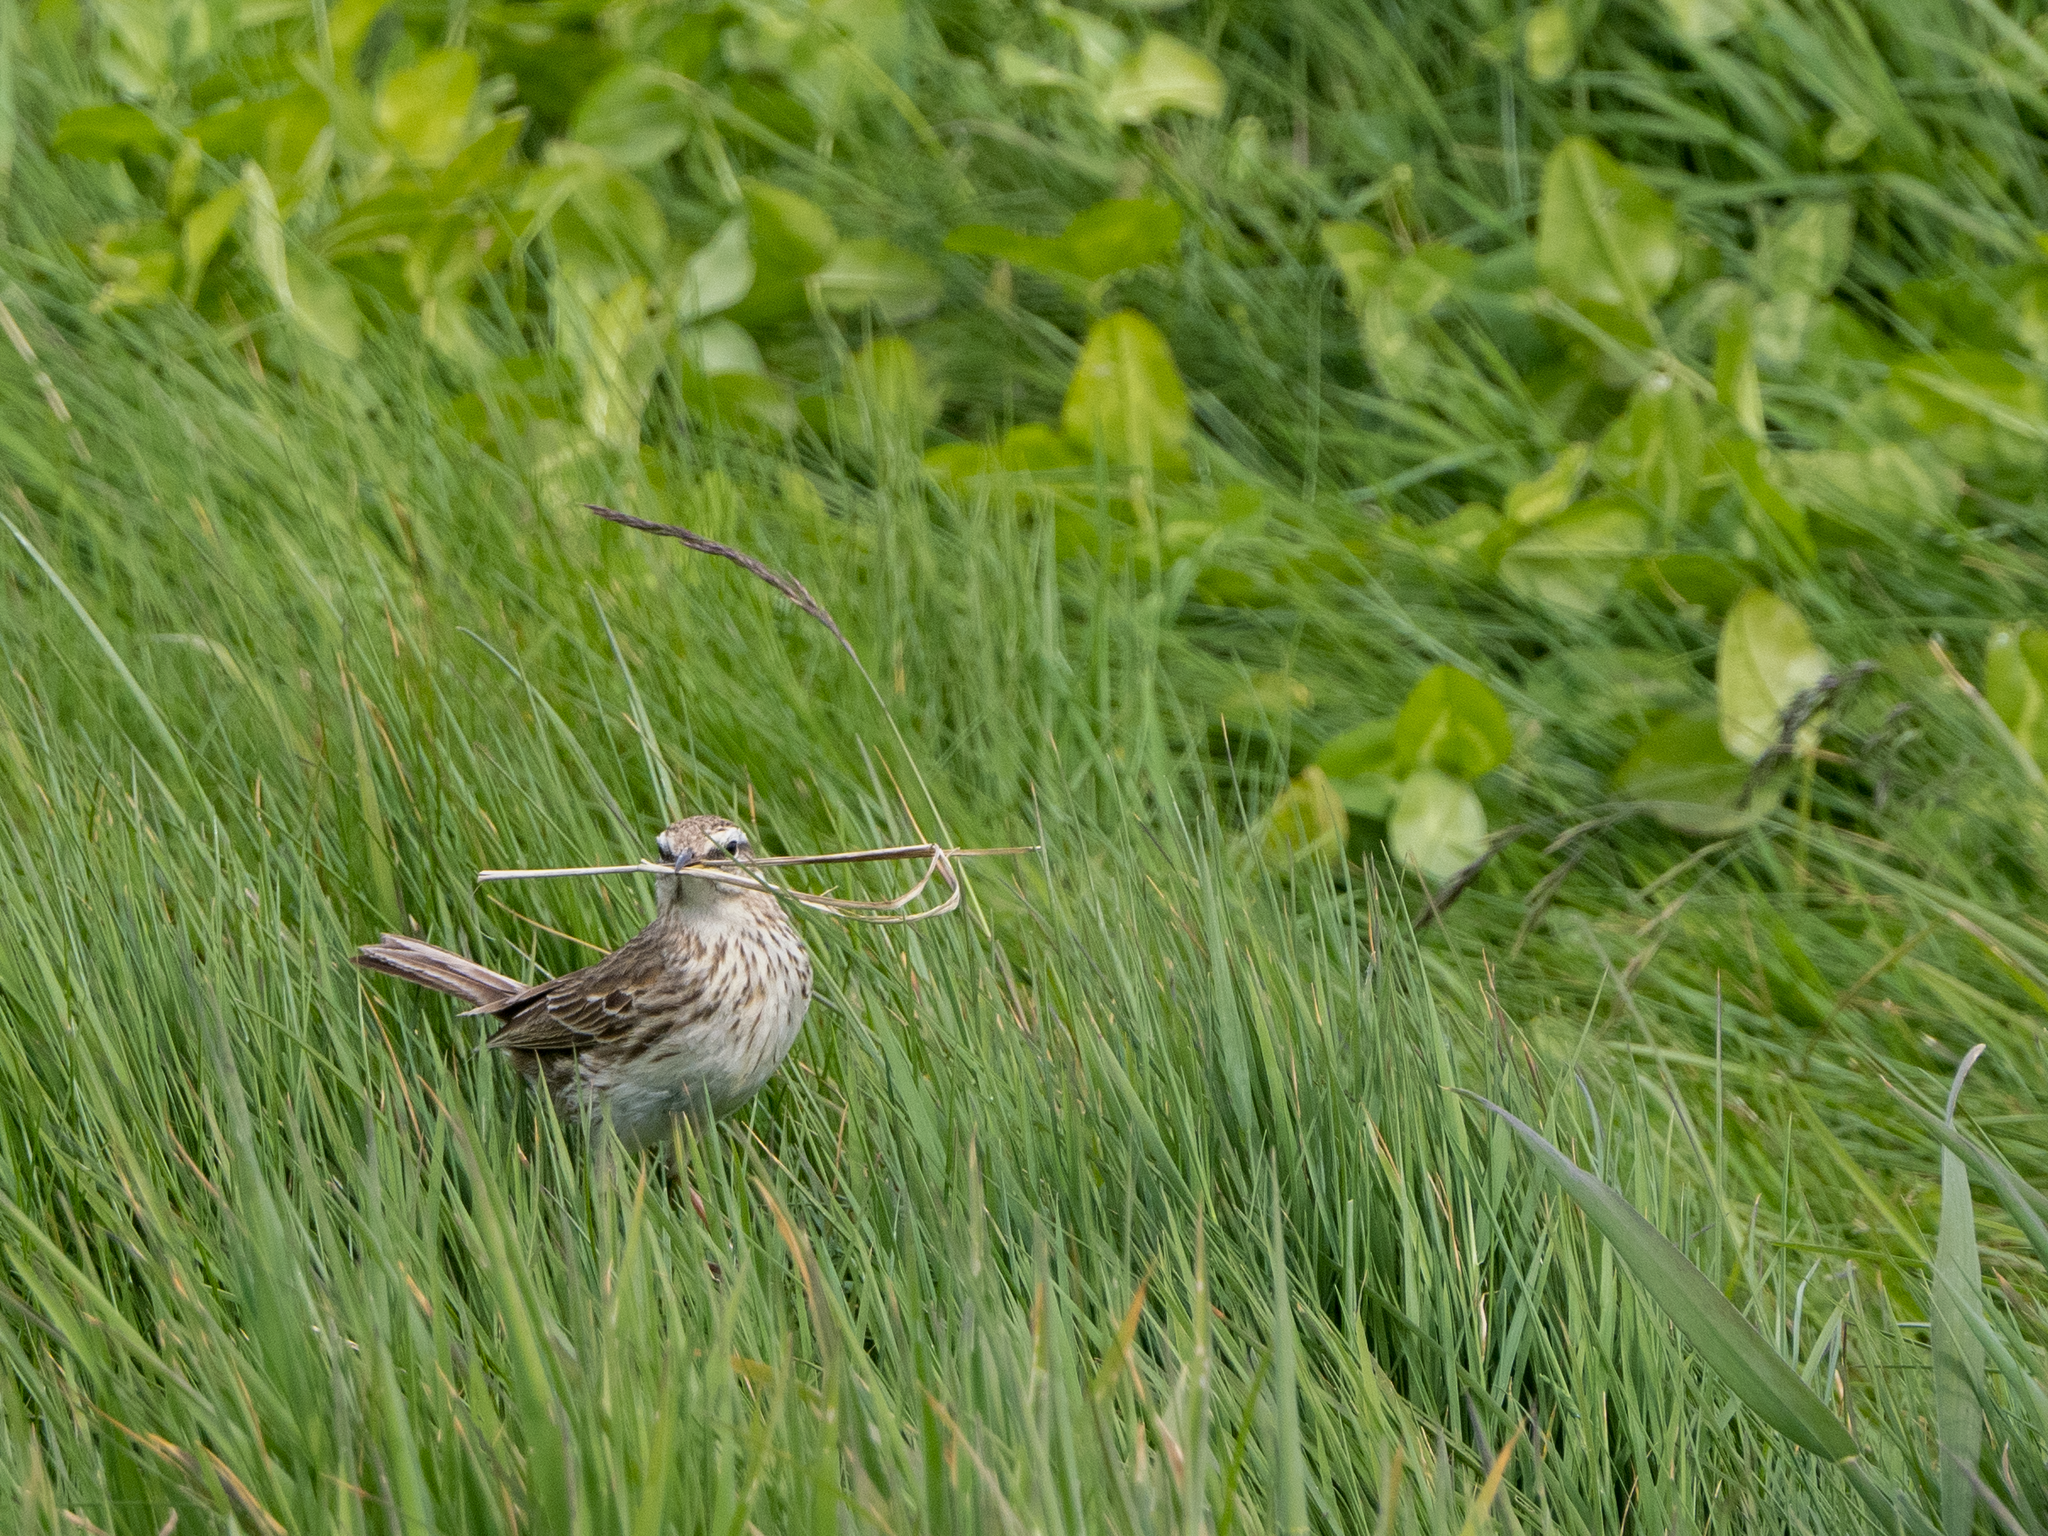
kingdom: Animalia
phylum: Chordata
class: Aves
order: Passeriformes
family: Motacillidae
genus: Anthus
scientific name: Anthus novaeseelandiae
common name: New zealand pipit
